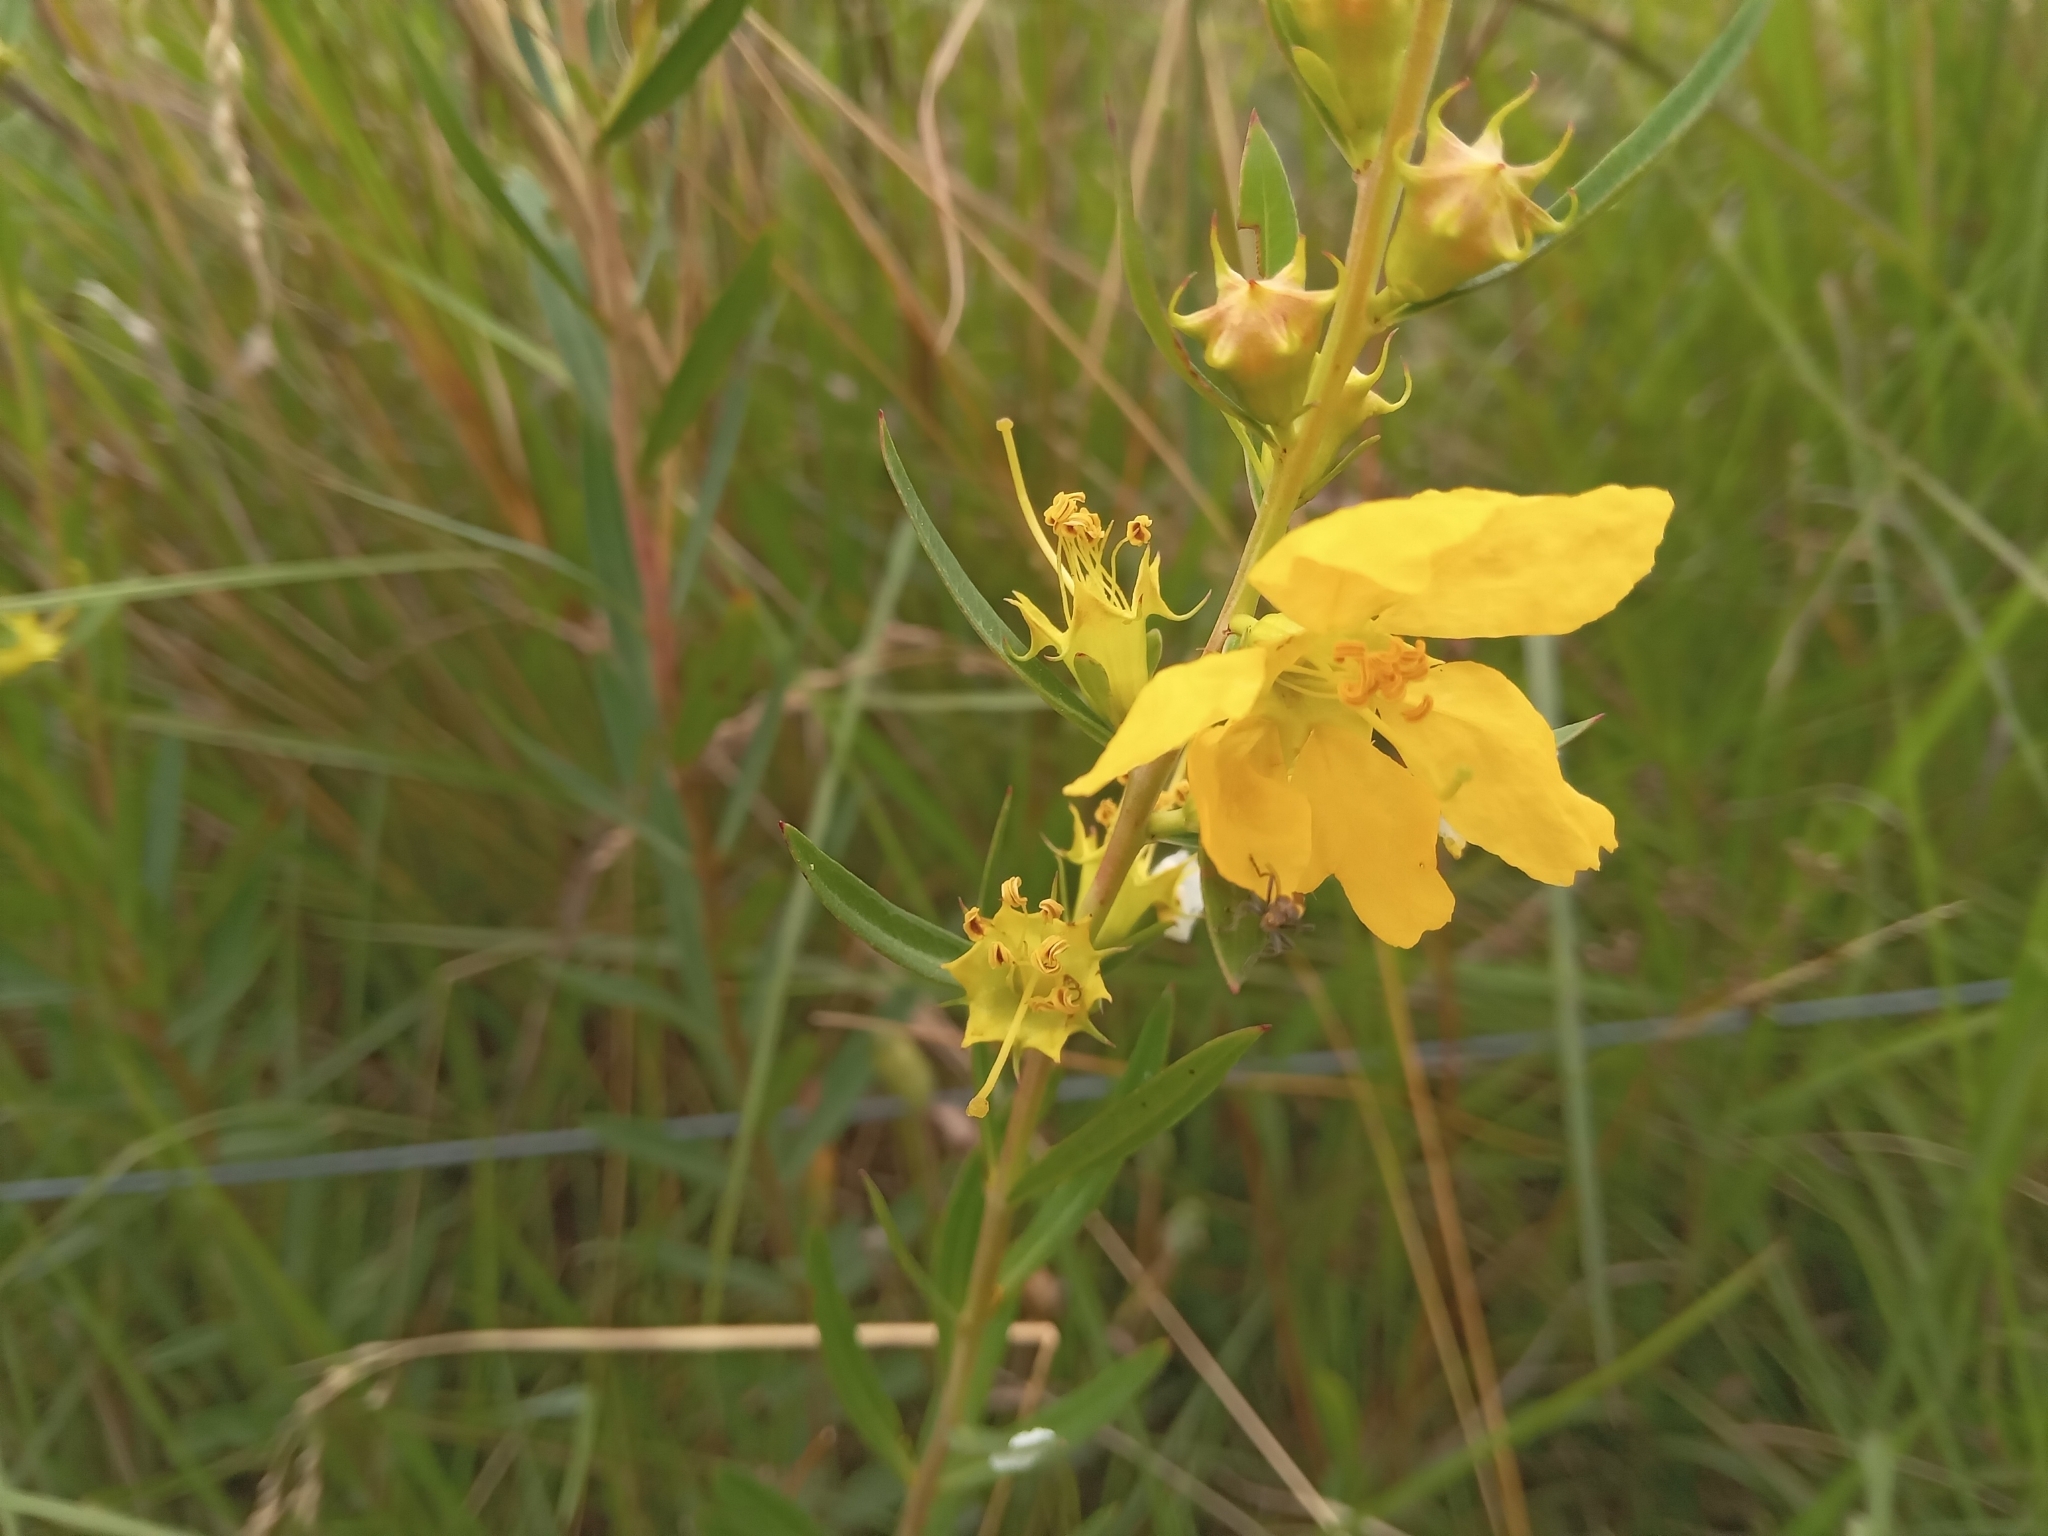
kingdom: Plantae
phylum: Tracheophyta
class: Magnoliopsida
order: Myrtales
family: Lythraceae
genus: Heimia
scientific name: Heimia salicifolia
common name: Willow-leaf heimia
